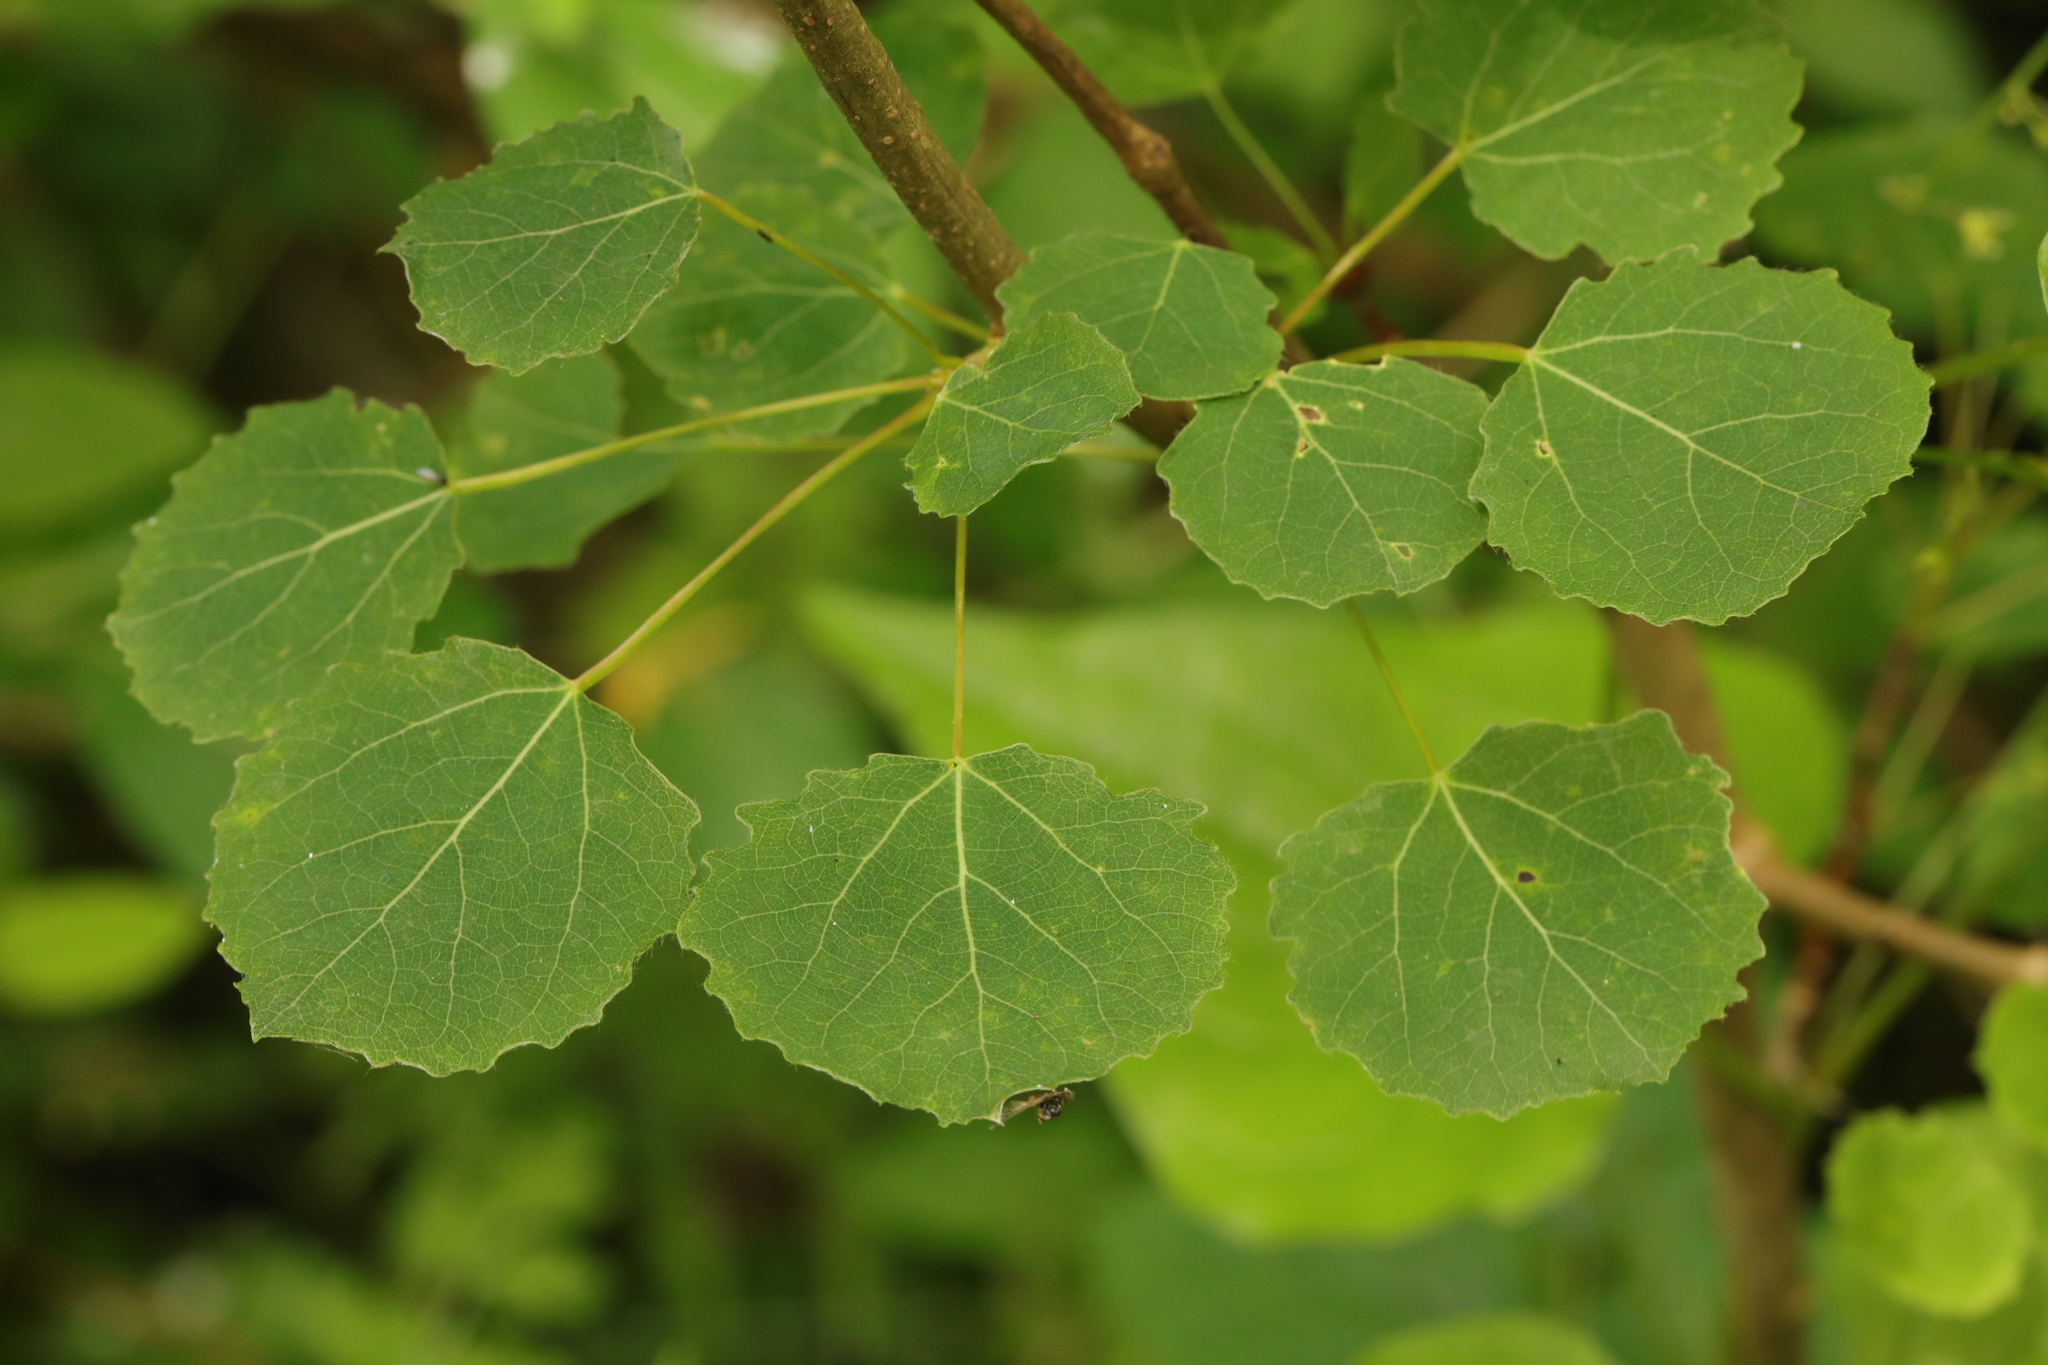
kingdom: Plantae
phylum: Tracheophyta
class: Magnoliopsida
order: Malpighiales
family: Salicaceae
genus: Populus
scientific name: Populus tremula
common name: European aspen
